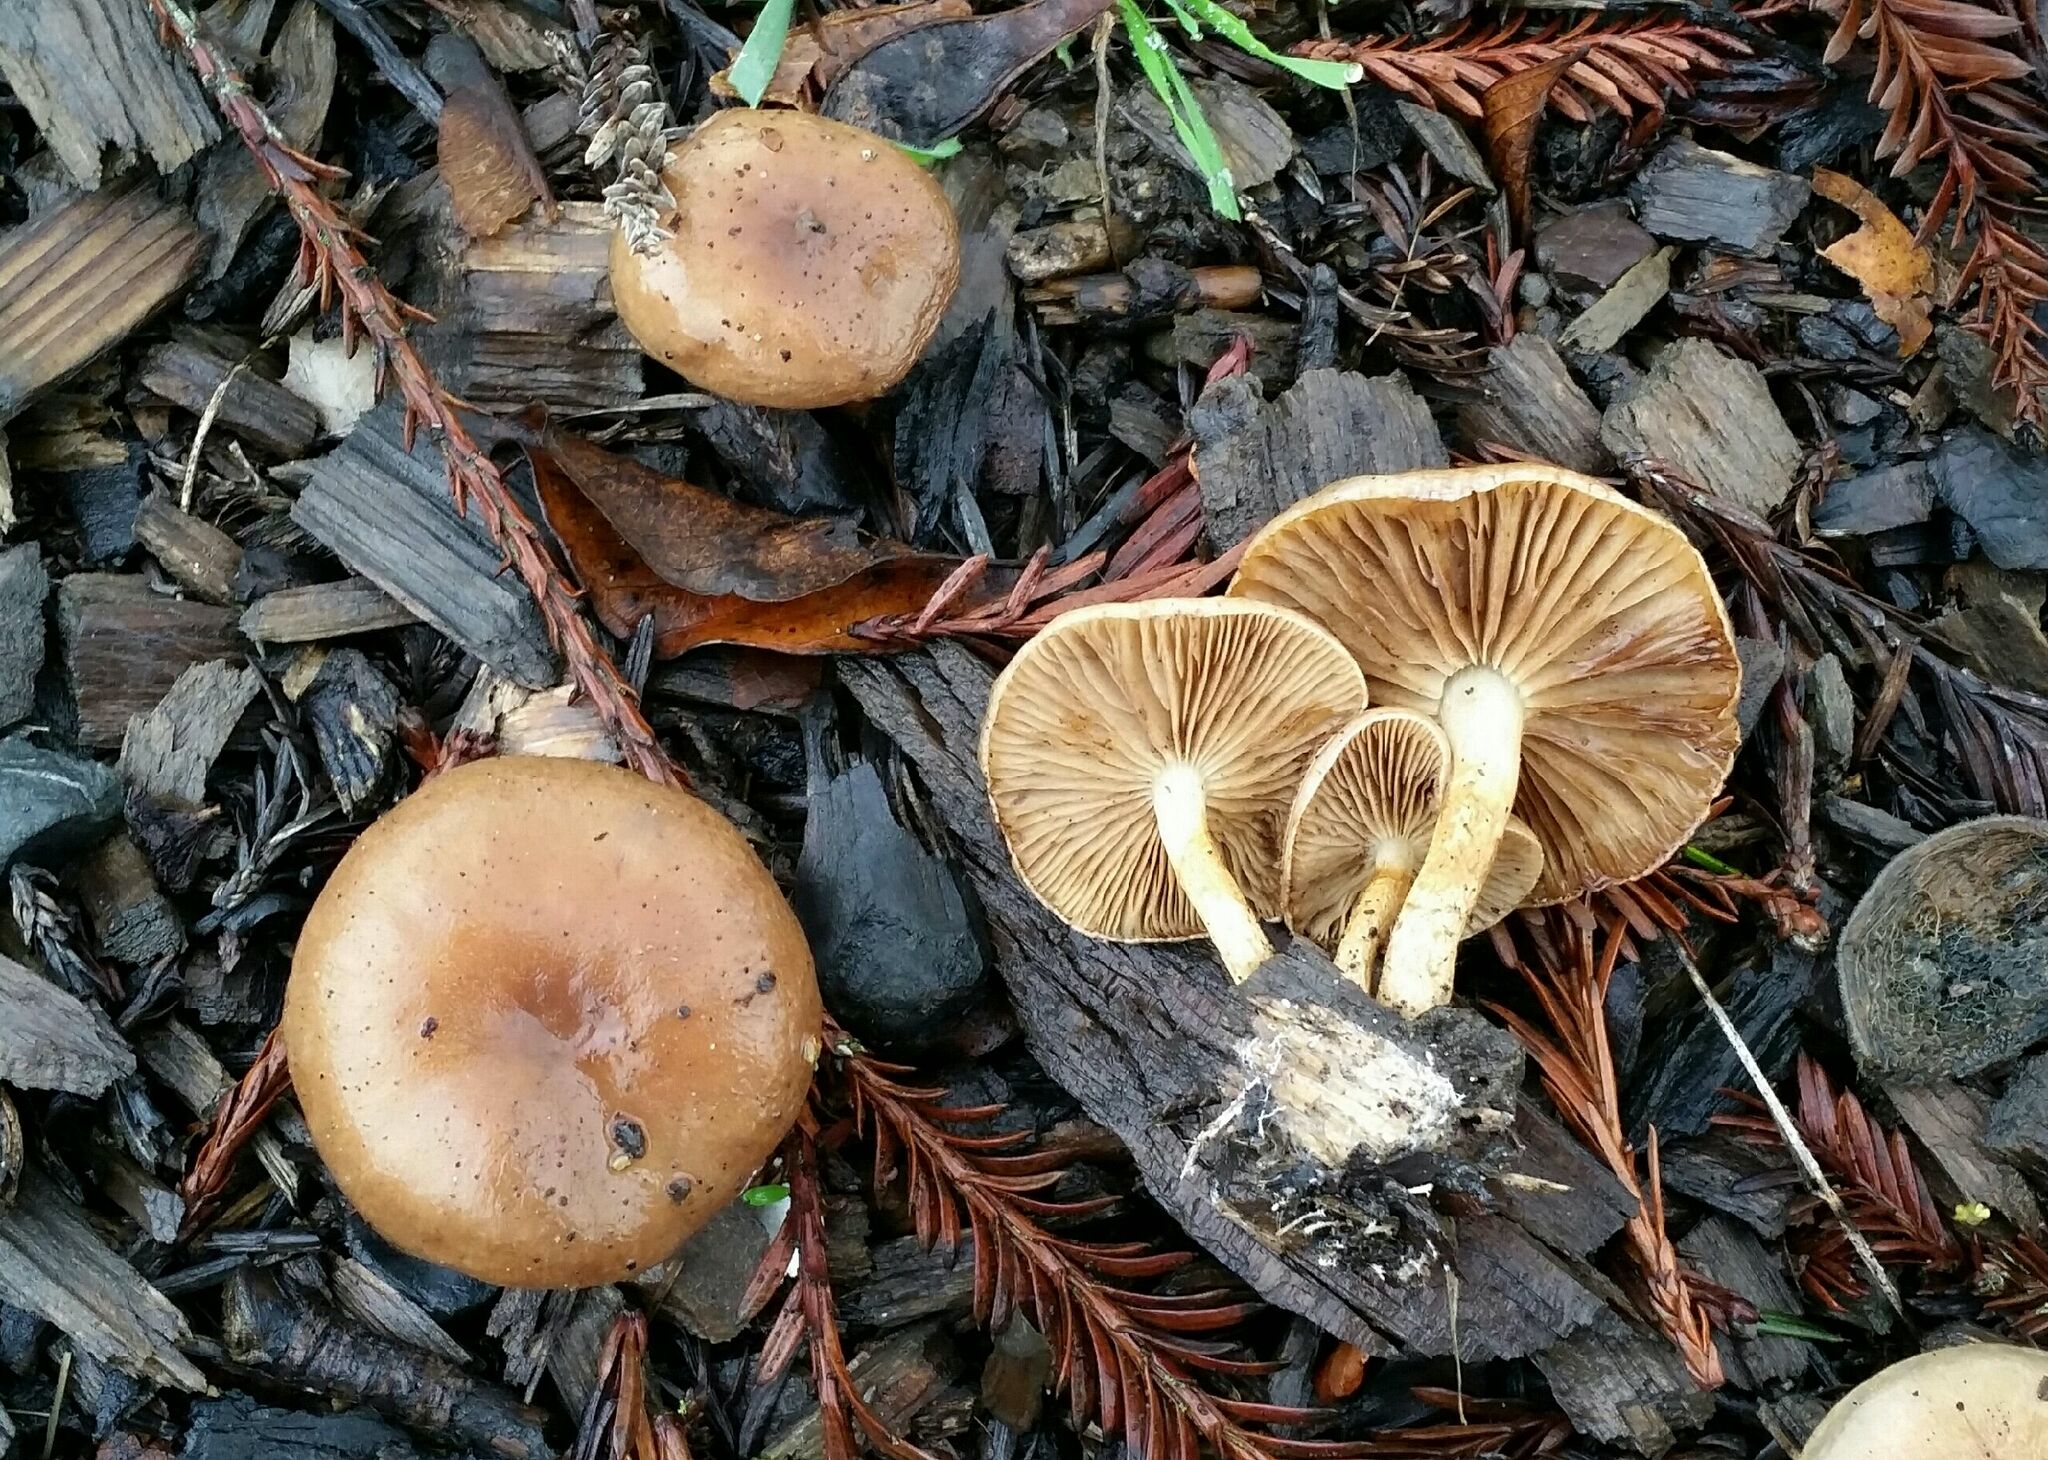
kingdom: Fungi
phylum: Basidiomycota
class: Agaricomycetes
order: Agaricales
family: Strophariaceae
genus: Pholiota
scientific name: Pholiota spumosa
